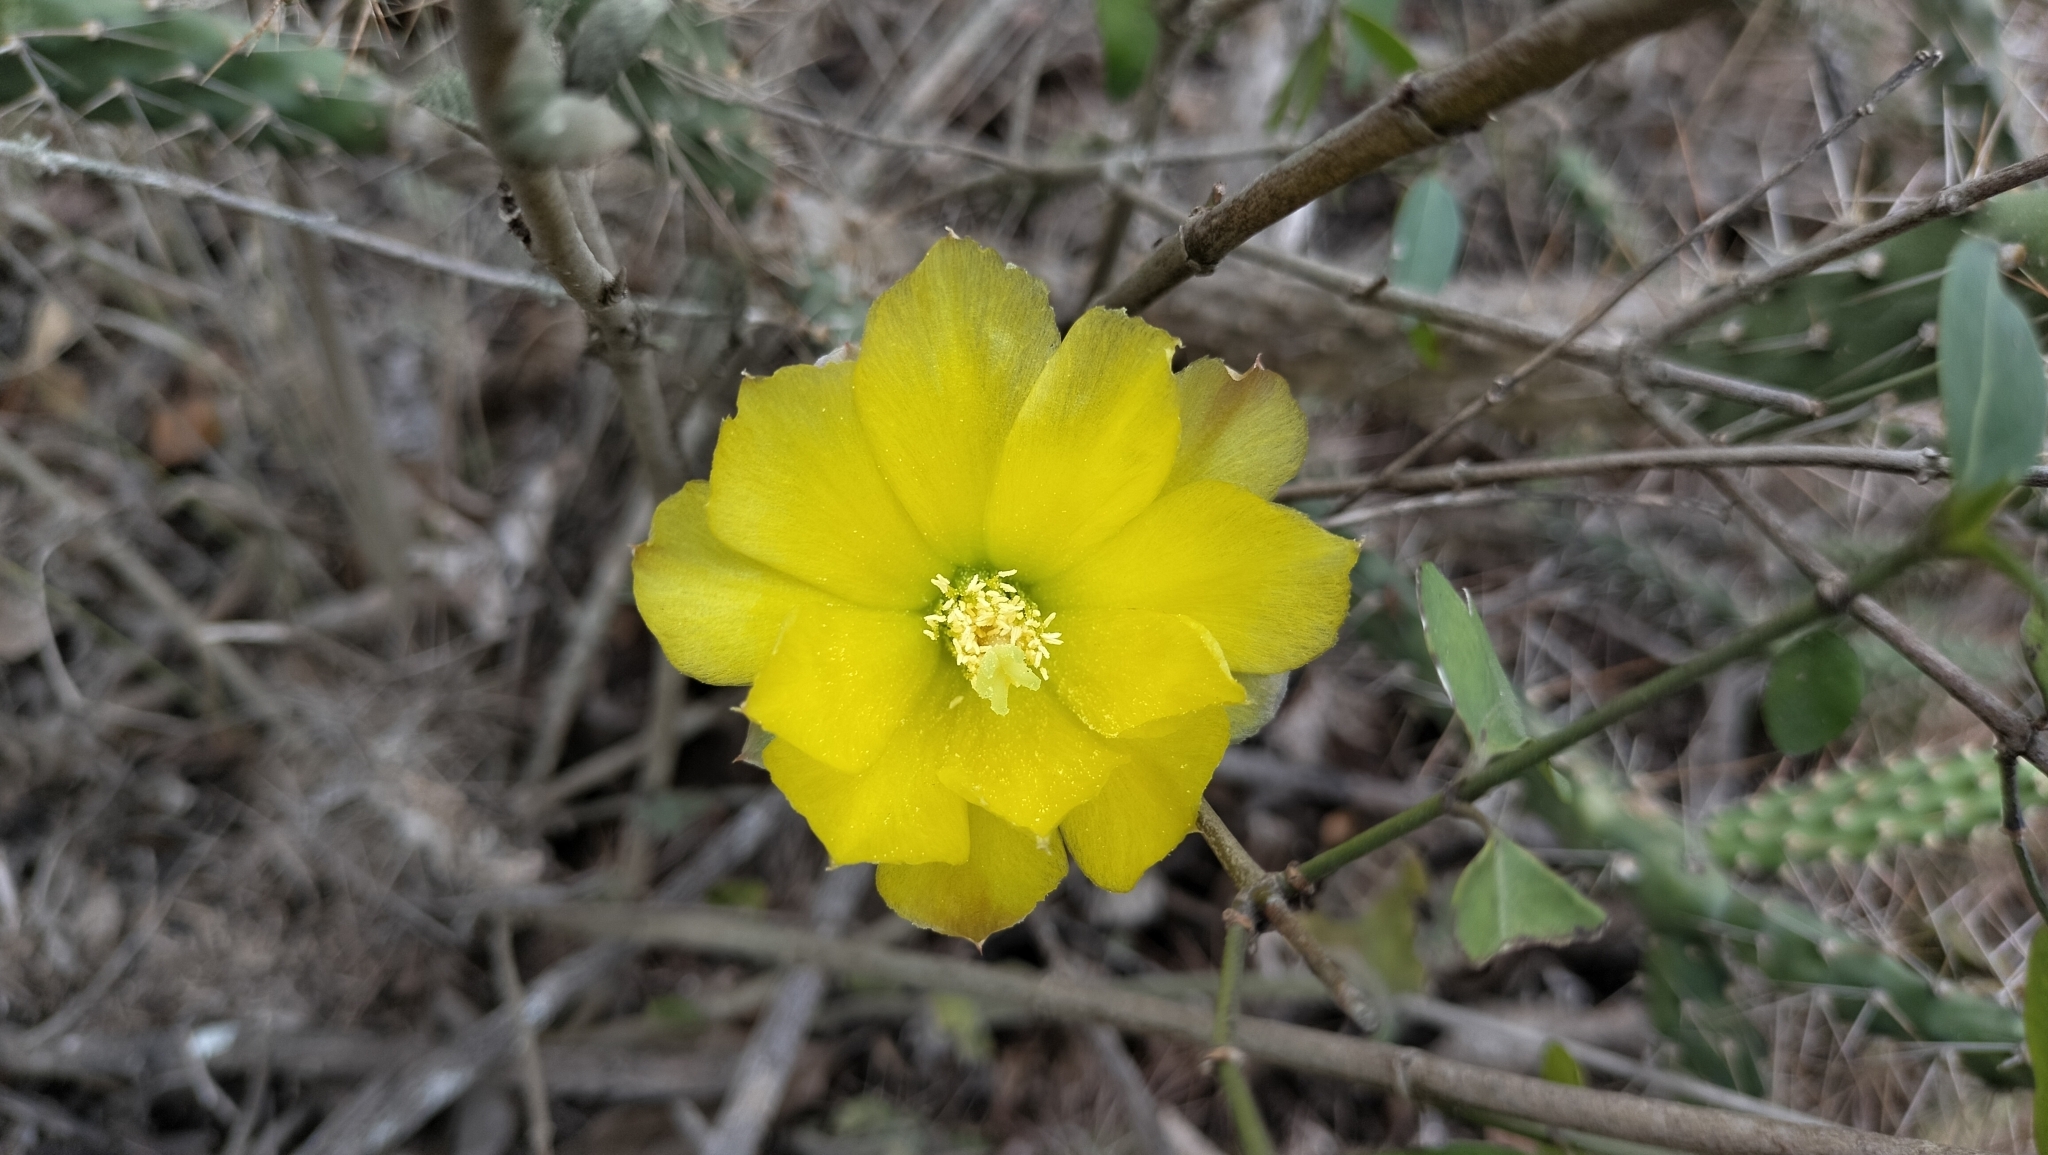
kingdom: Plantae
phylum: Tracheophyta
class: Magnoliopsida
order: Caryophyllales
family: Cactaceae
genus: Opuntia
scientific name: Opuntia pubescens
